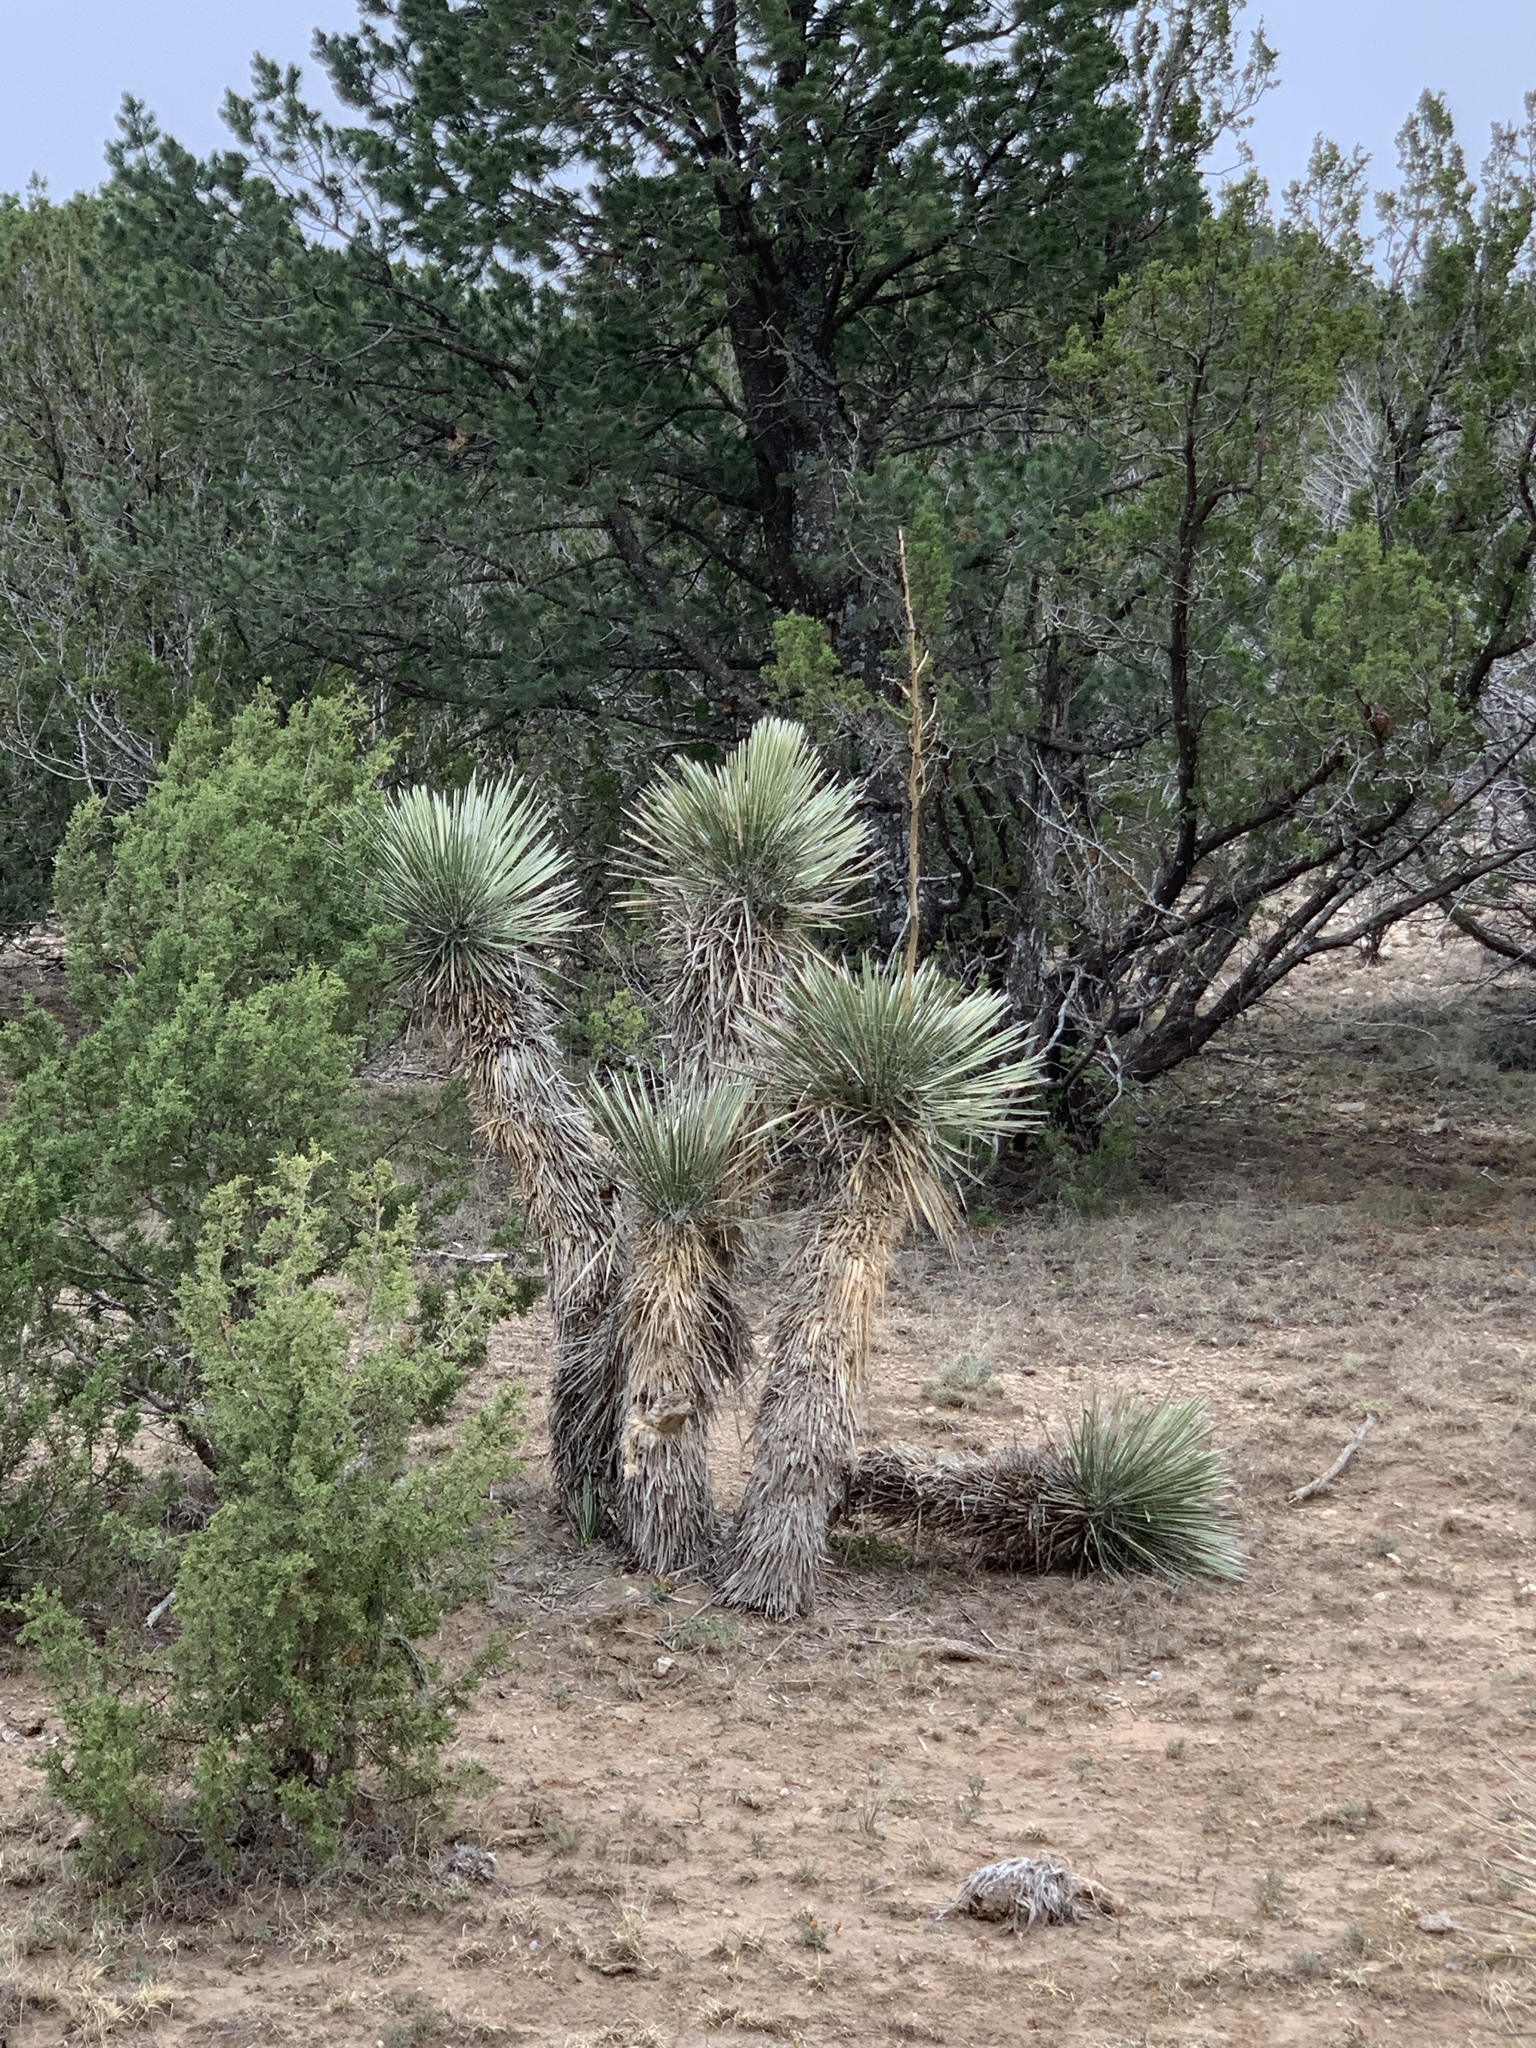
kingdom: Plantae
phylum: Tracheophyta
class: Liliopsida
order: Asparagales
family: Asparagaceae
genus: Yucca
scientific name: Yucca elata
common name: Palmella
